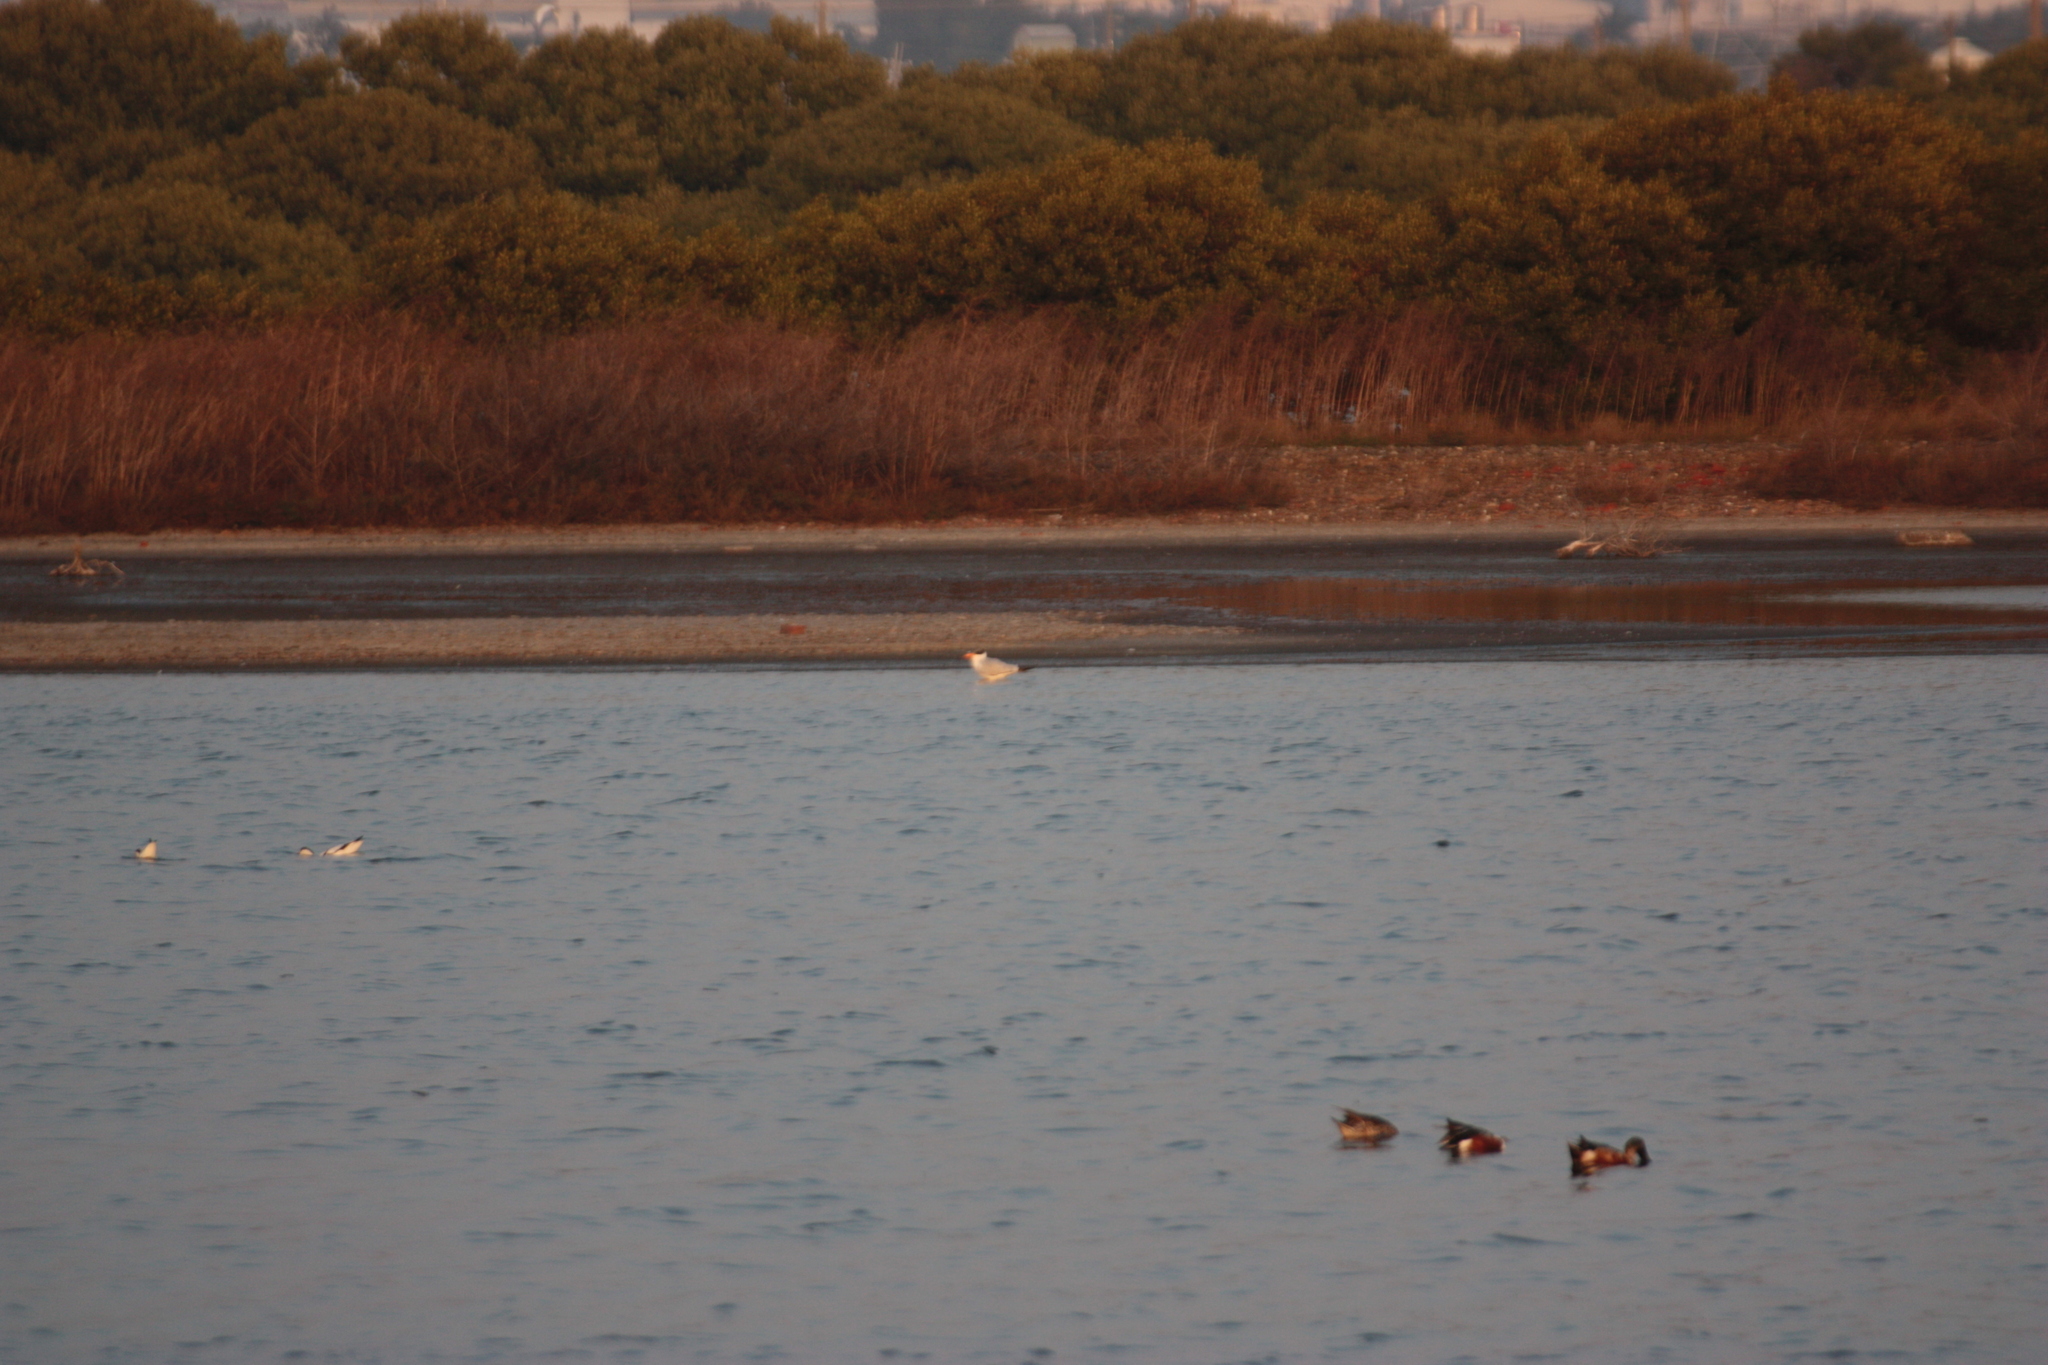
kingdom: Animalia
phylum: Chordata
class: Aves
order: Charadriiformes
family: Laridae
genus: Hydroprogne
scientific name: Hydroprogne caspia
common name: Caspian tern
